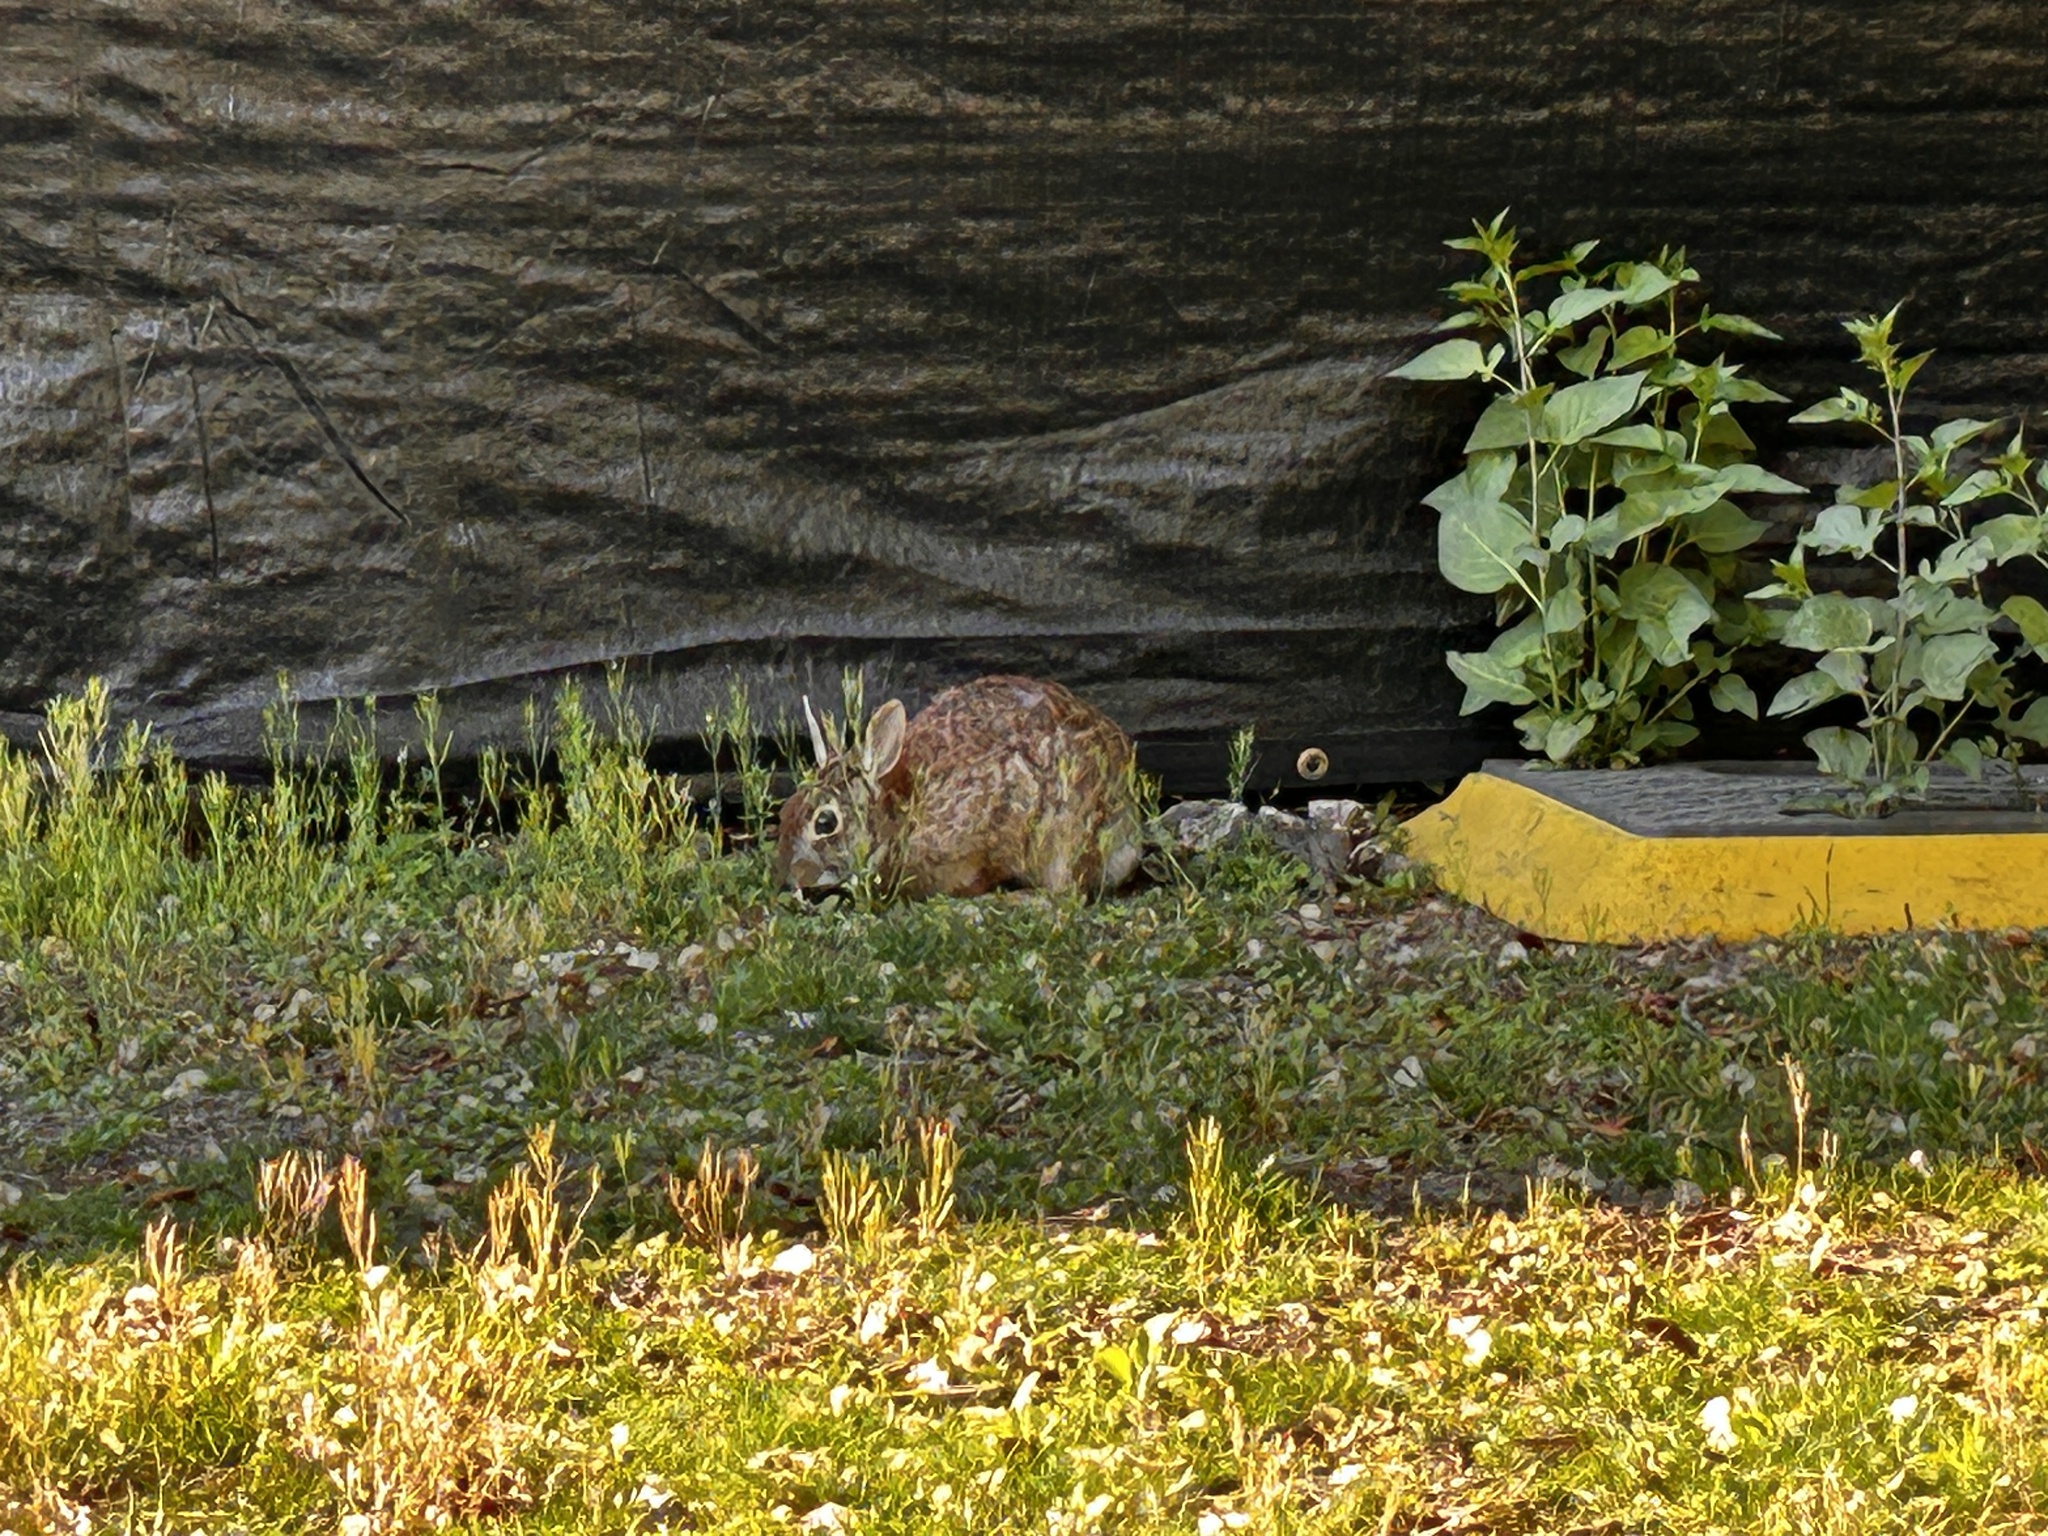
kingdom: Animalia
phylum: Chordata
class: Mammalia
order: Lagomorpha
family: Leporidae
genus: Sylvilagus
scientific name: Sylvilagus floridanus
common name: Eastern cottontail
